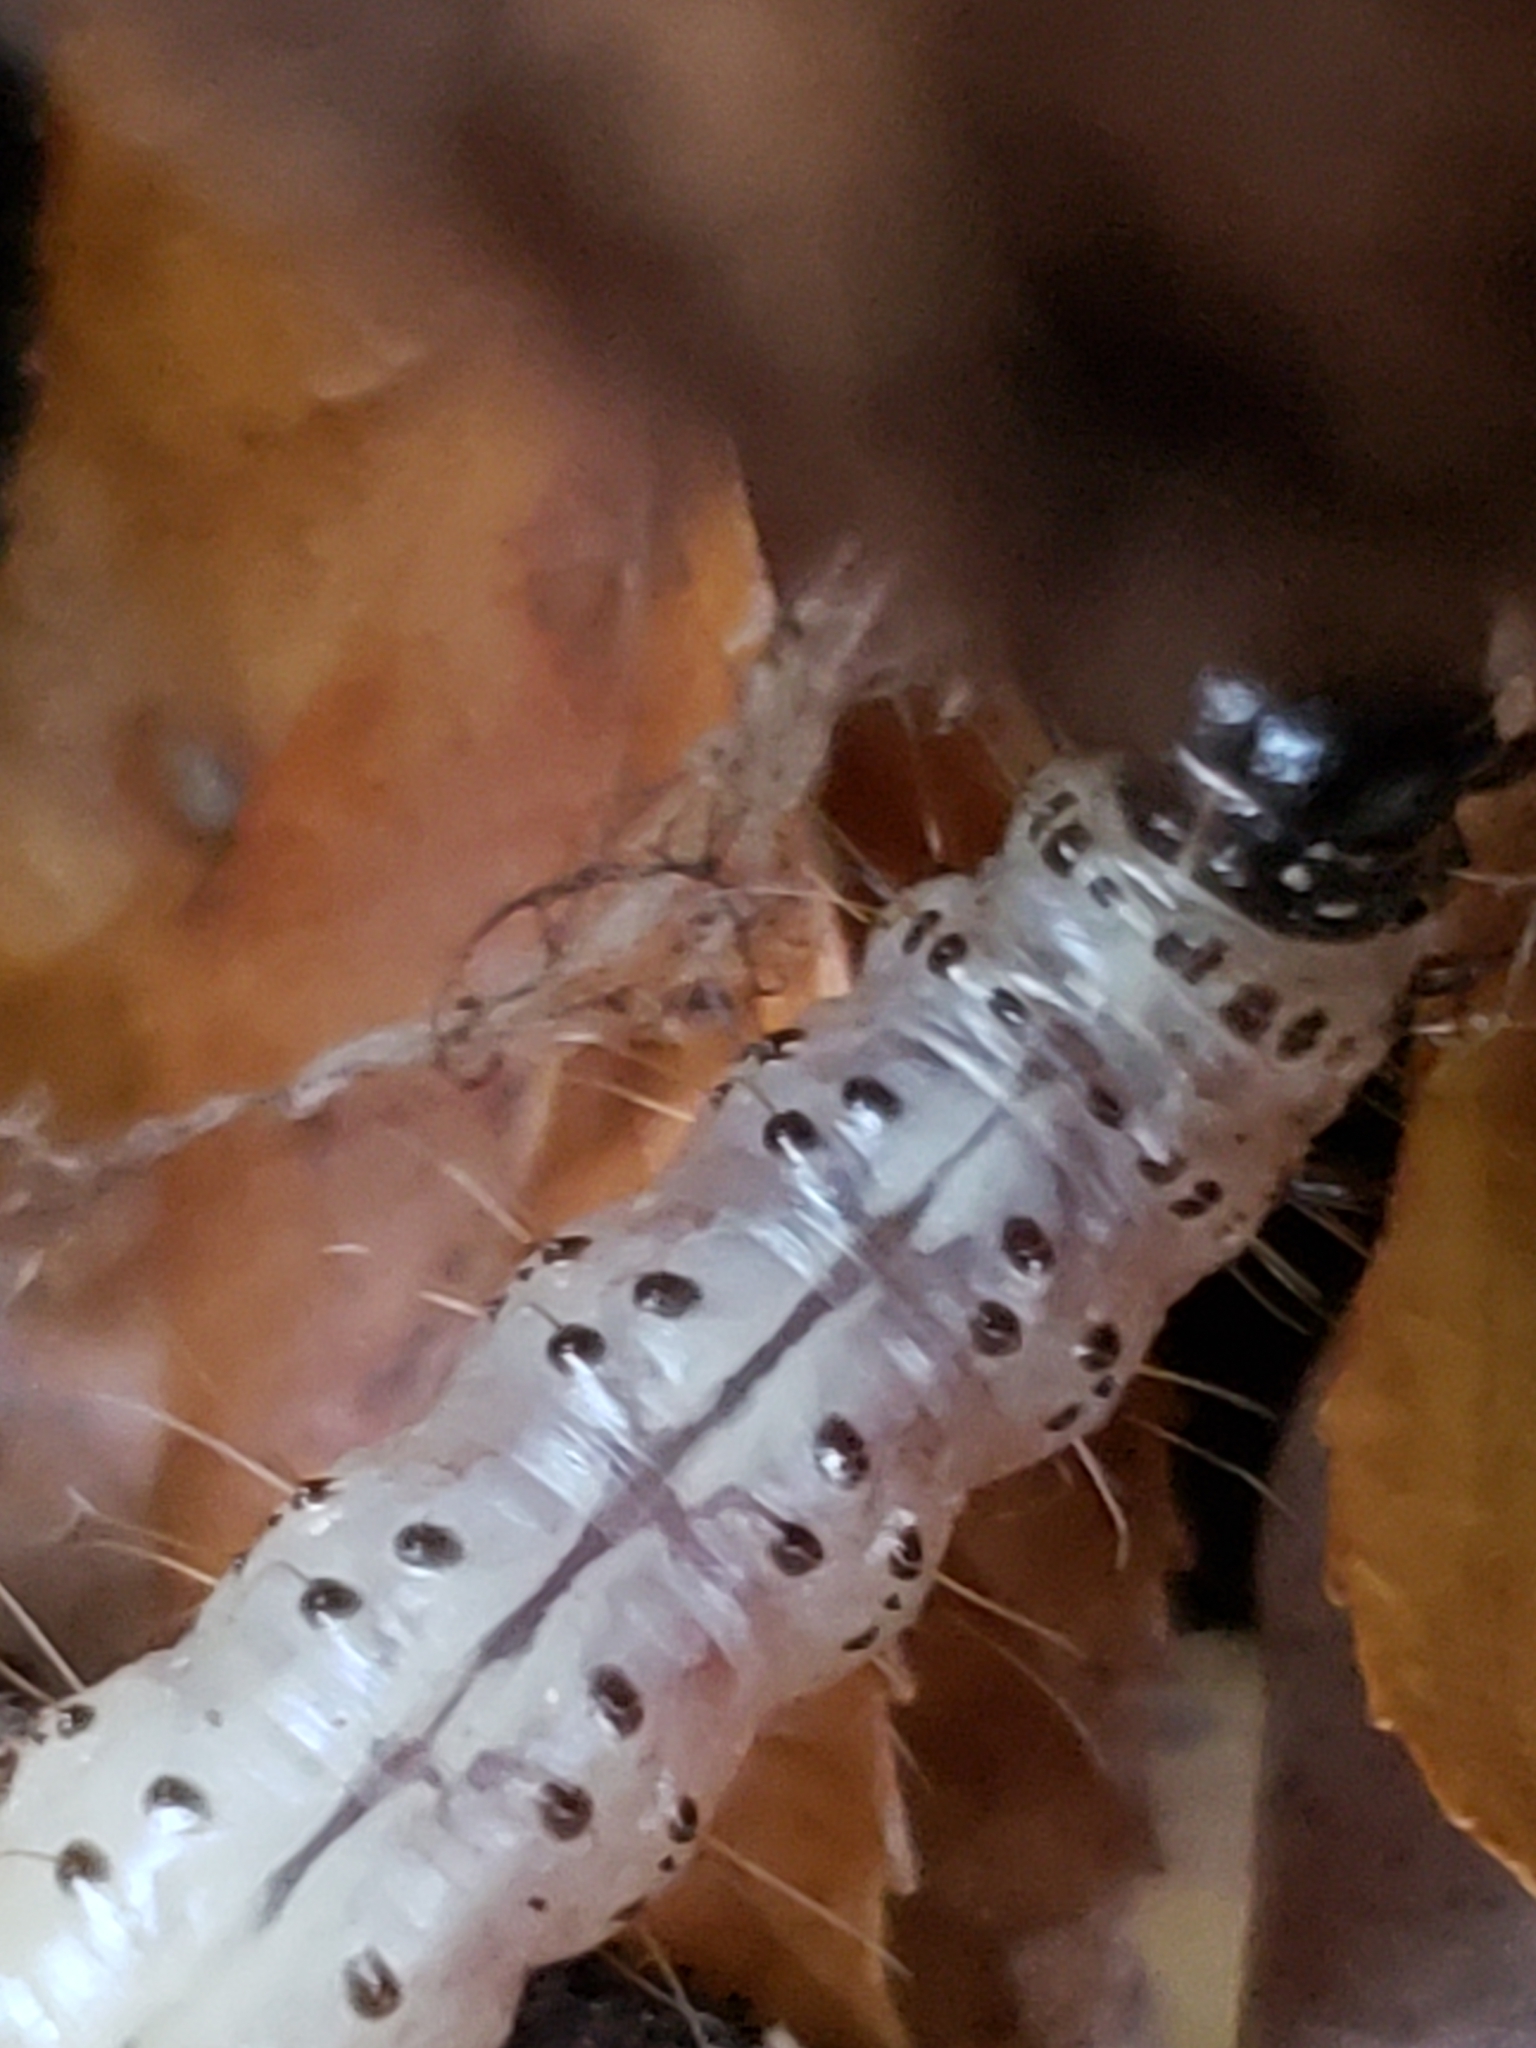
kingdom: Animalia
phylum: Arthropoda
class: Insecta
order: Lepidoptera
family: Erebidae
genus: Scolecocampa
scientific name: Scolecocampa liburna
